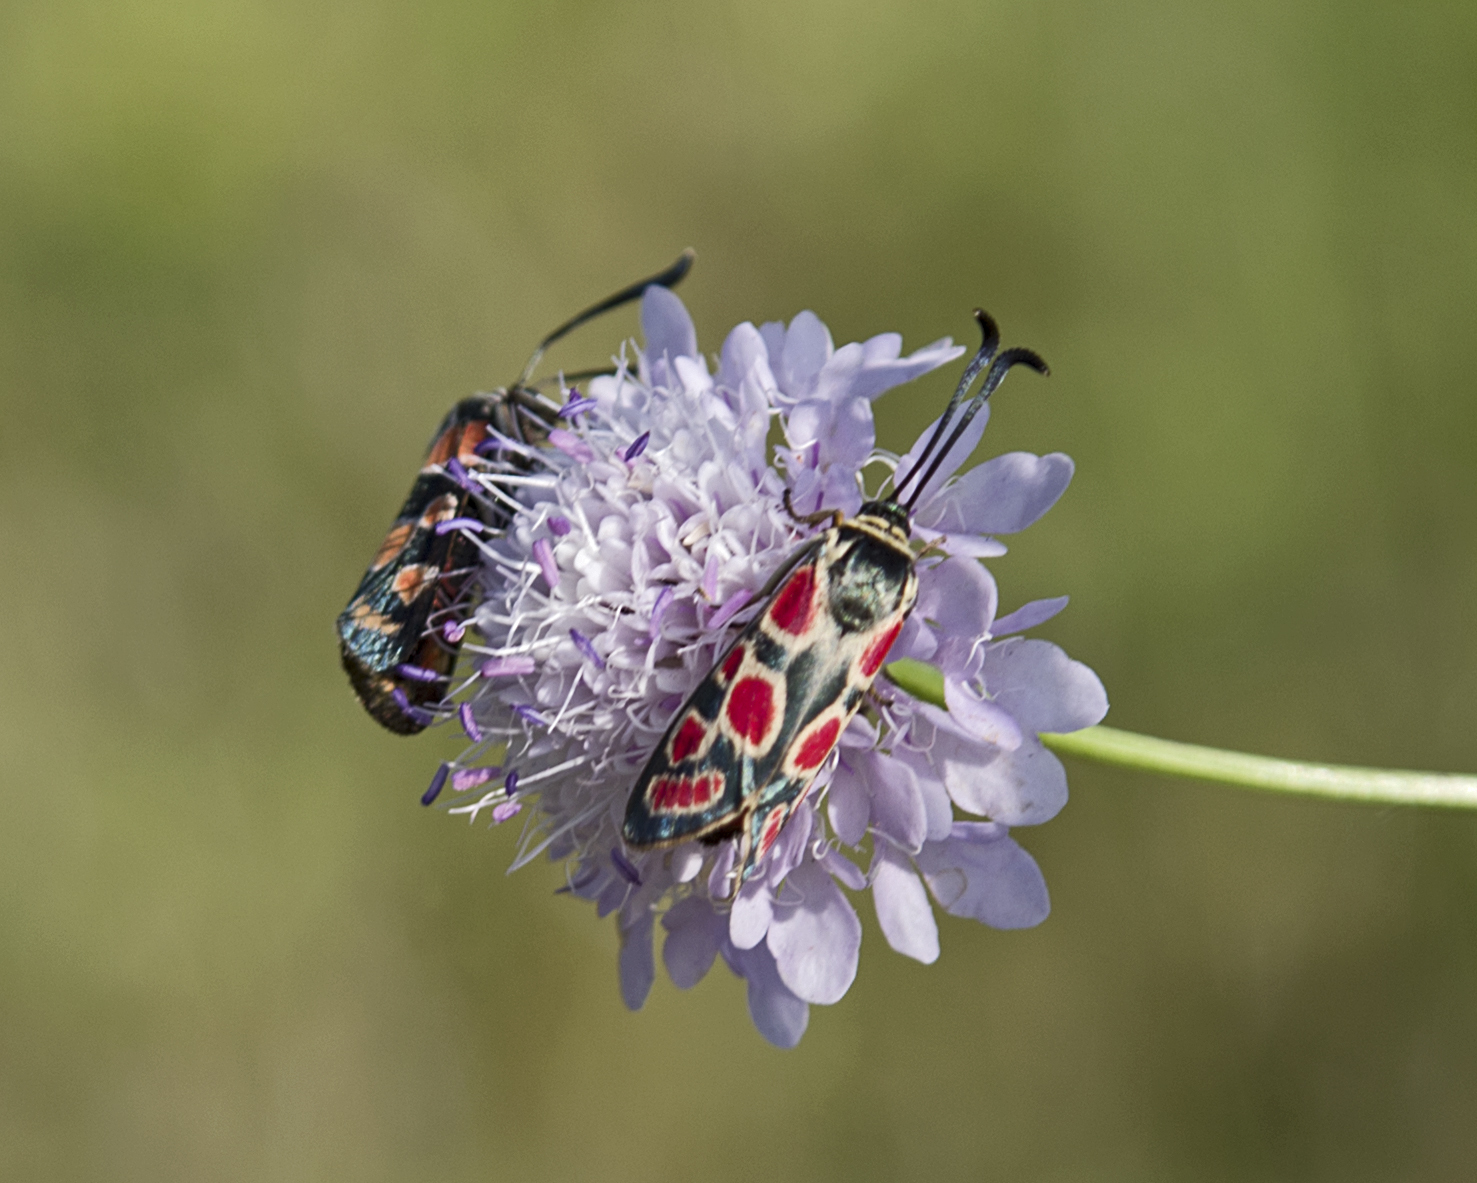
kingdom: Animalia
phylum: Arthropoda
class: Insecta
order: Lepidoptera
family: Zygaenidae
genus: Zygaena
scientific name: Zygaena carniolica
